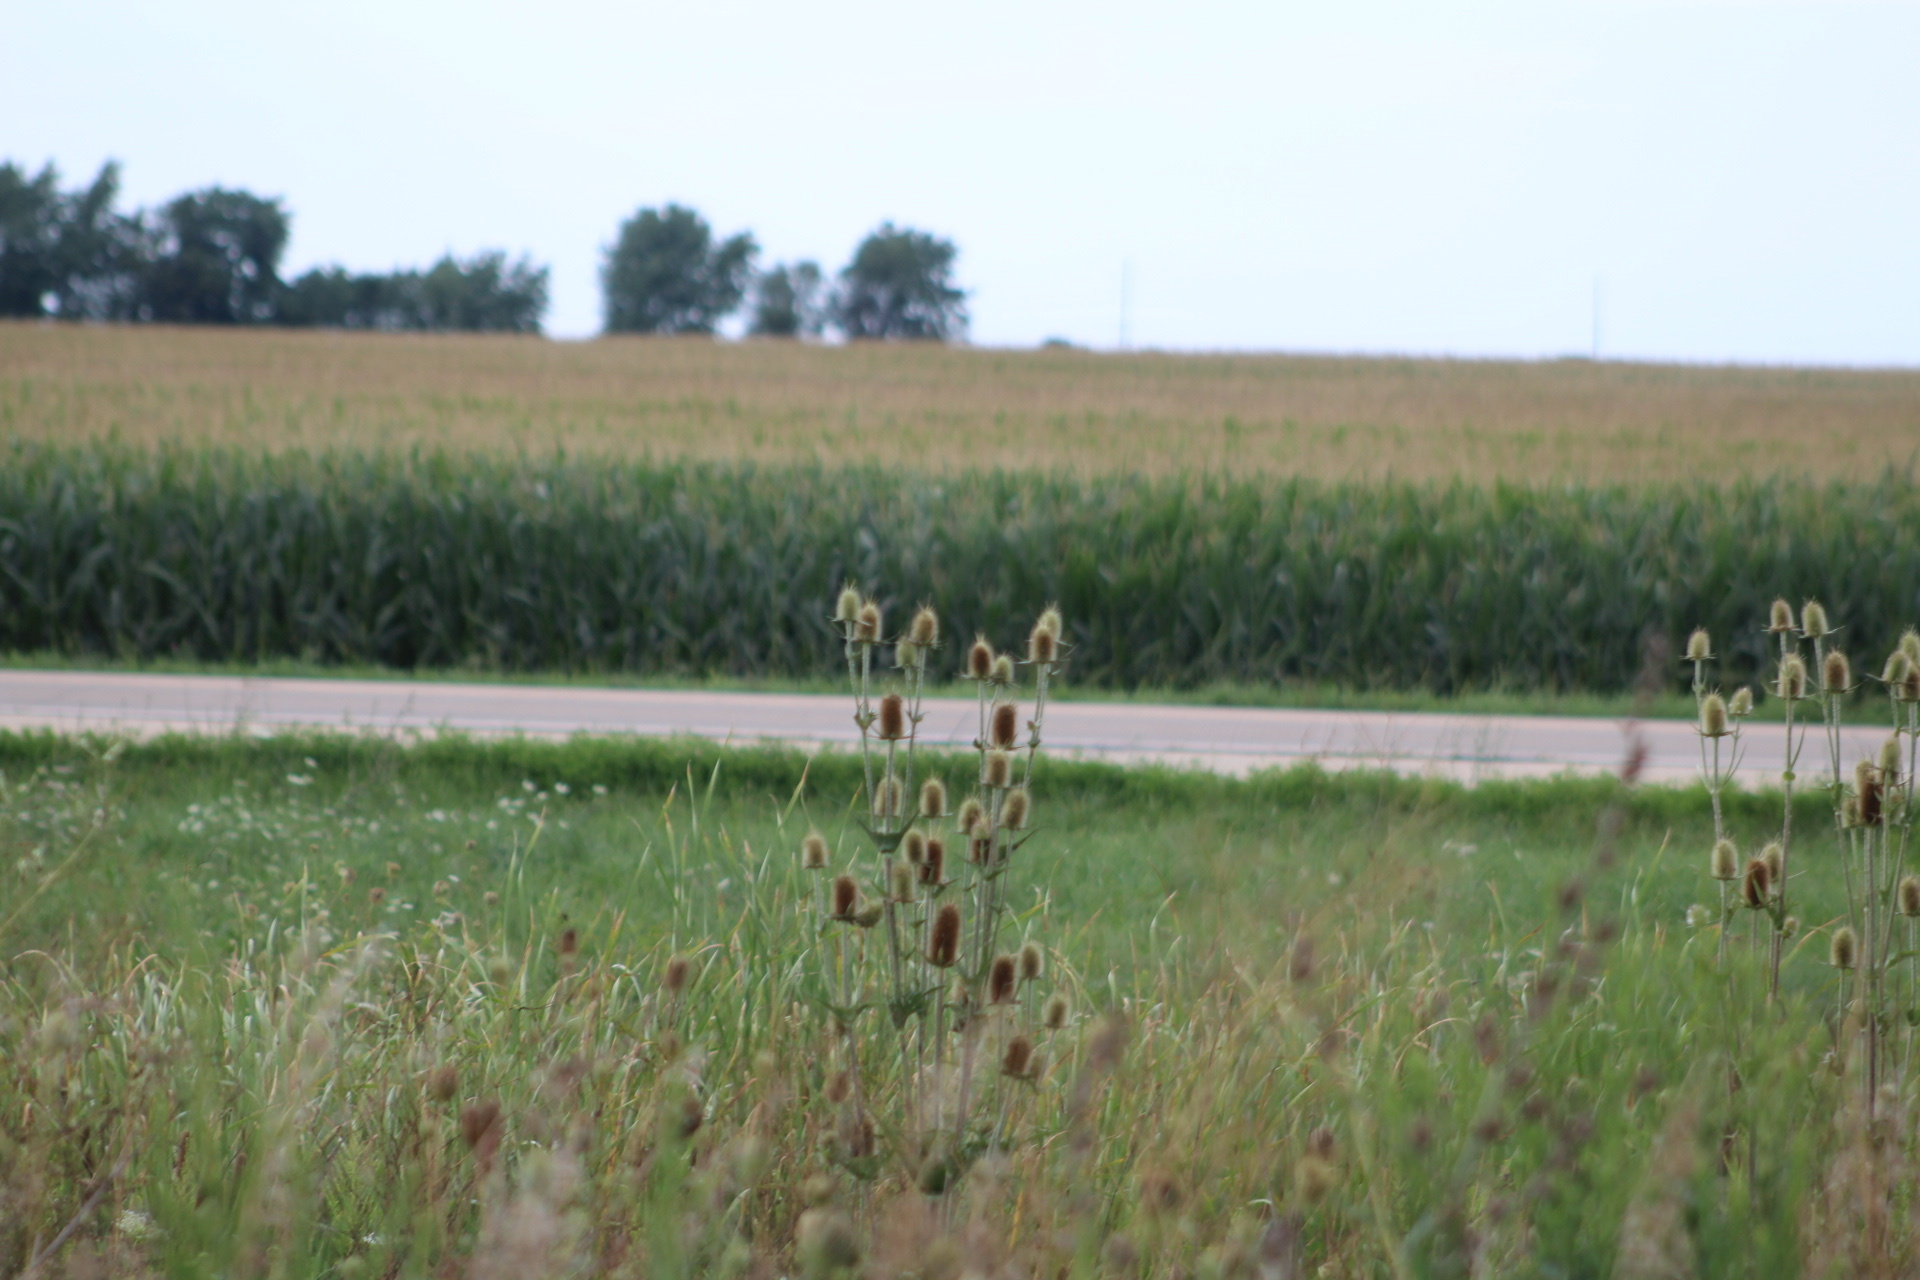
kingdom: Plantae
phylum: Tracheophyta
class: Magnoliopsida
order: Dipsacales
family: Caprifoliaceae
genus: Dipsacus
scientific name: Dipsacus laciniatus
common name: Cut-leaved teasel
